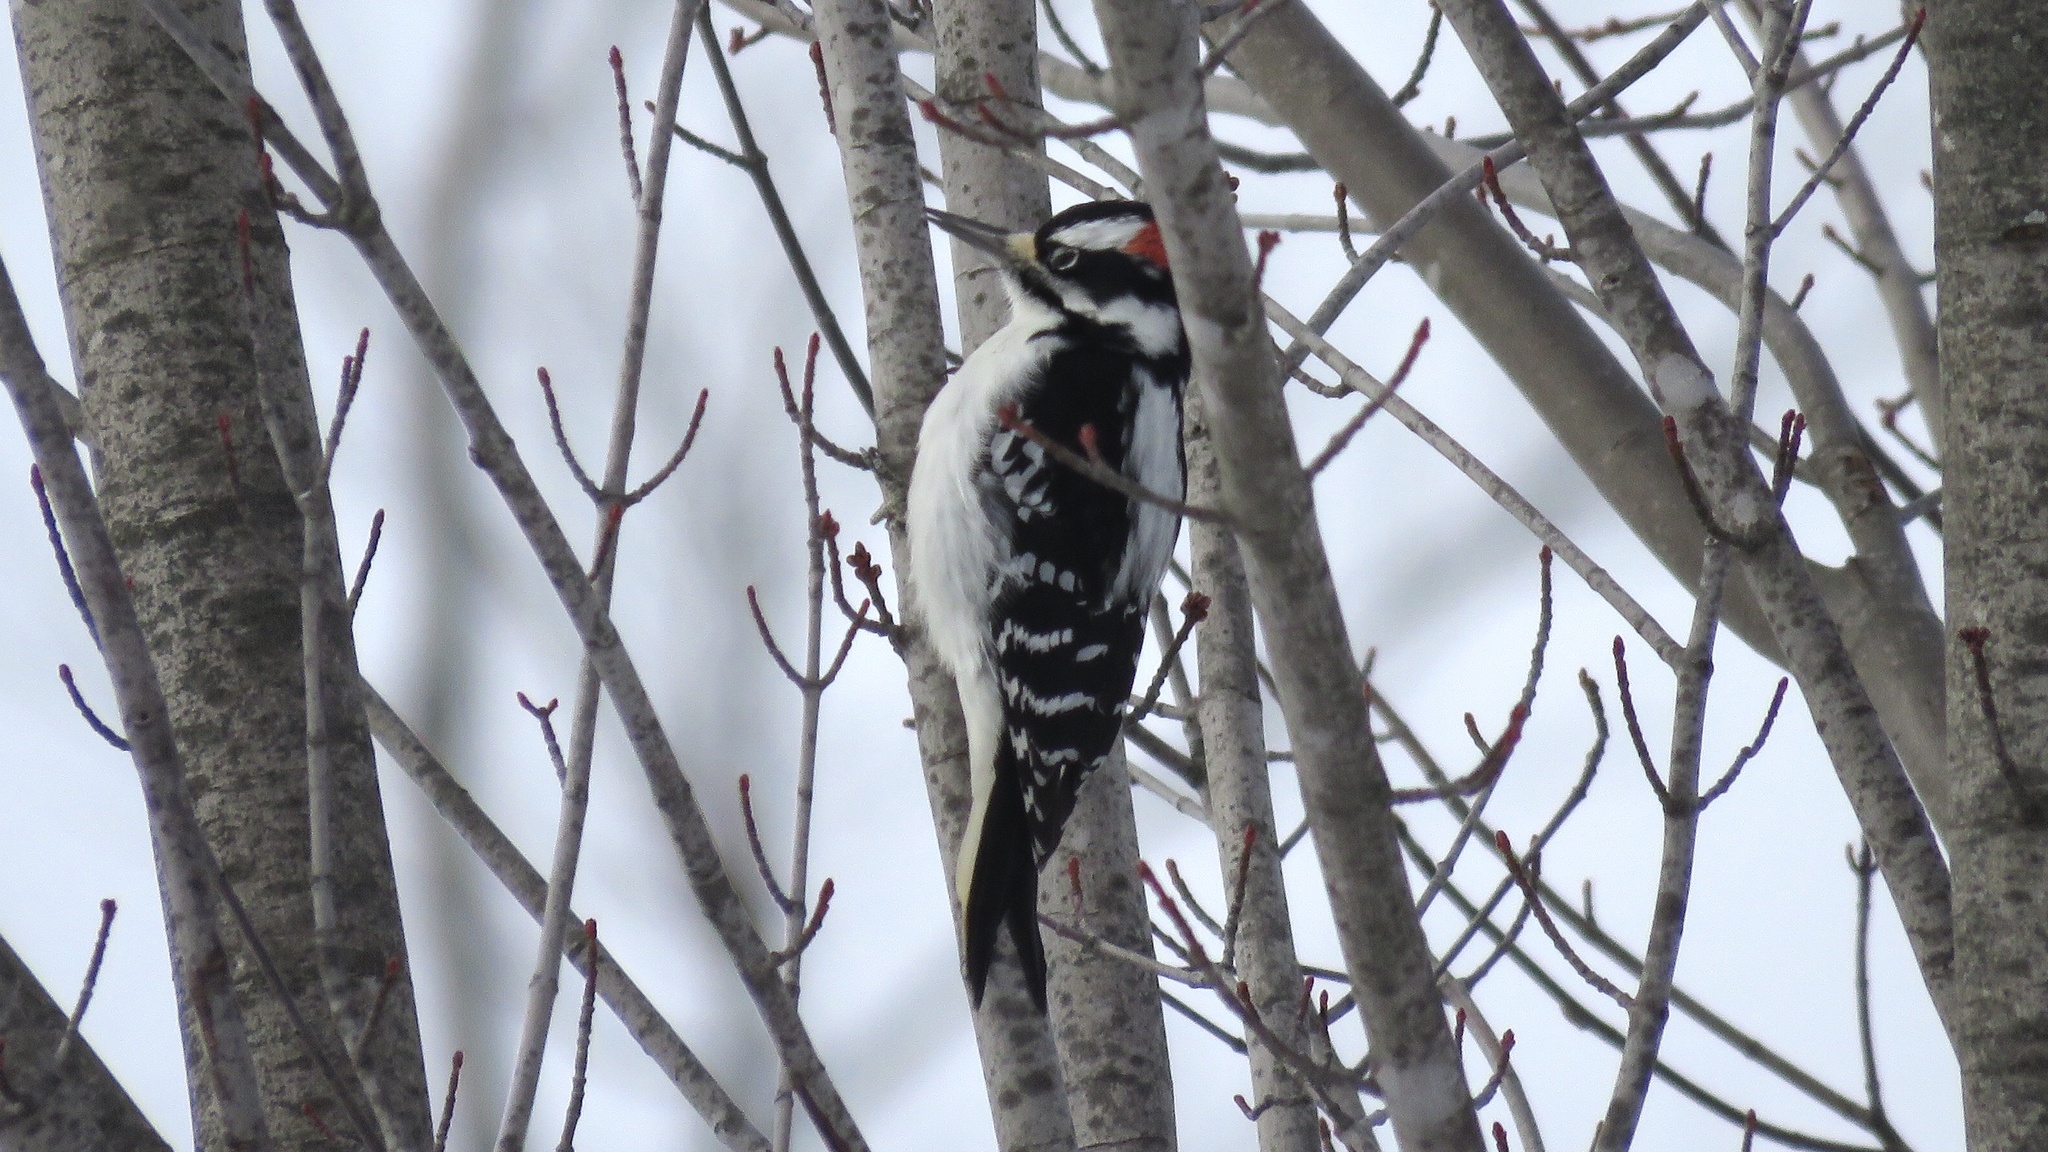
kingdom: Animalia
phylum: Chordata
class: Aves
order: Piciformes
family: Picidae
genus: Leuconotopicus
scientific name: Leuconotopicus villosus
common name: Hairy woodpecker
